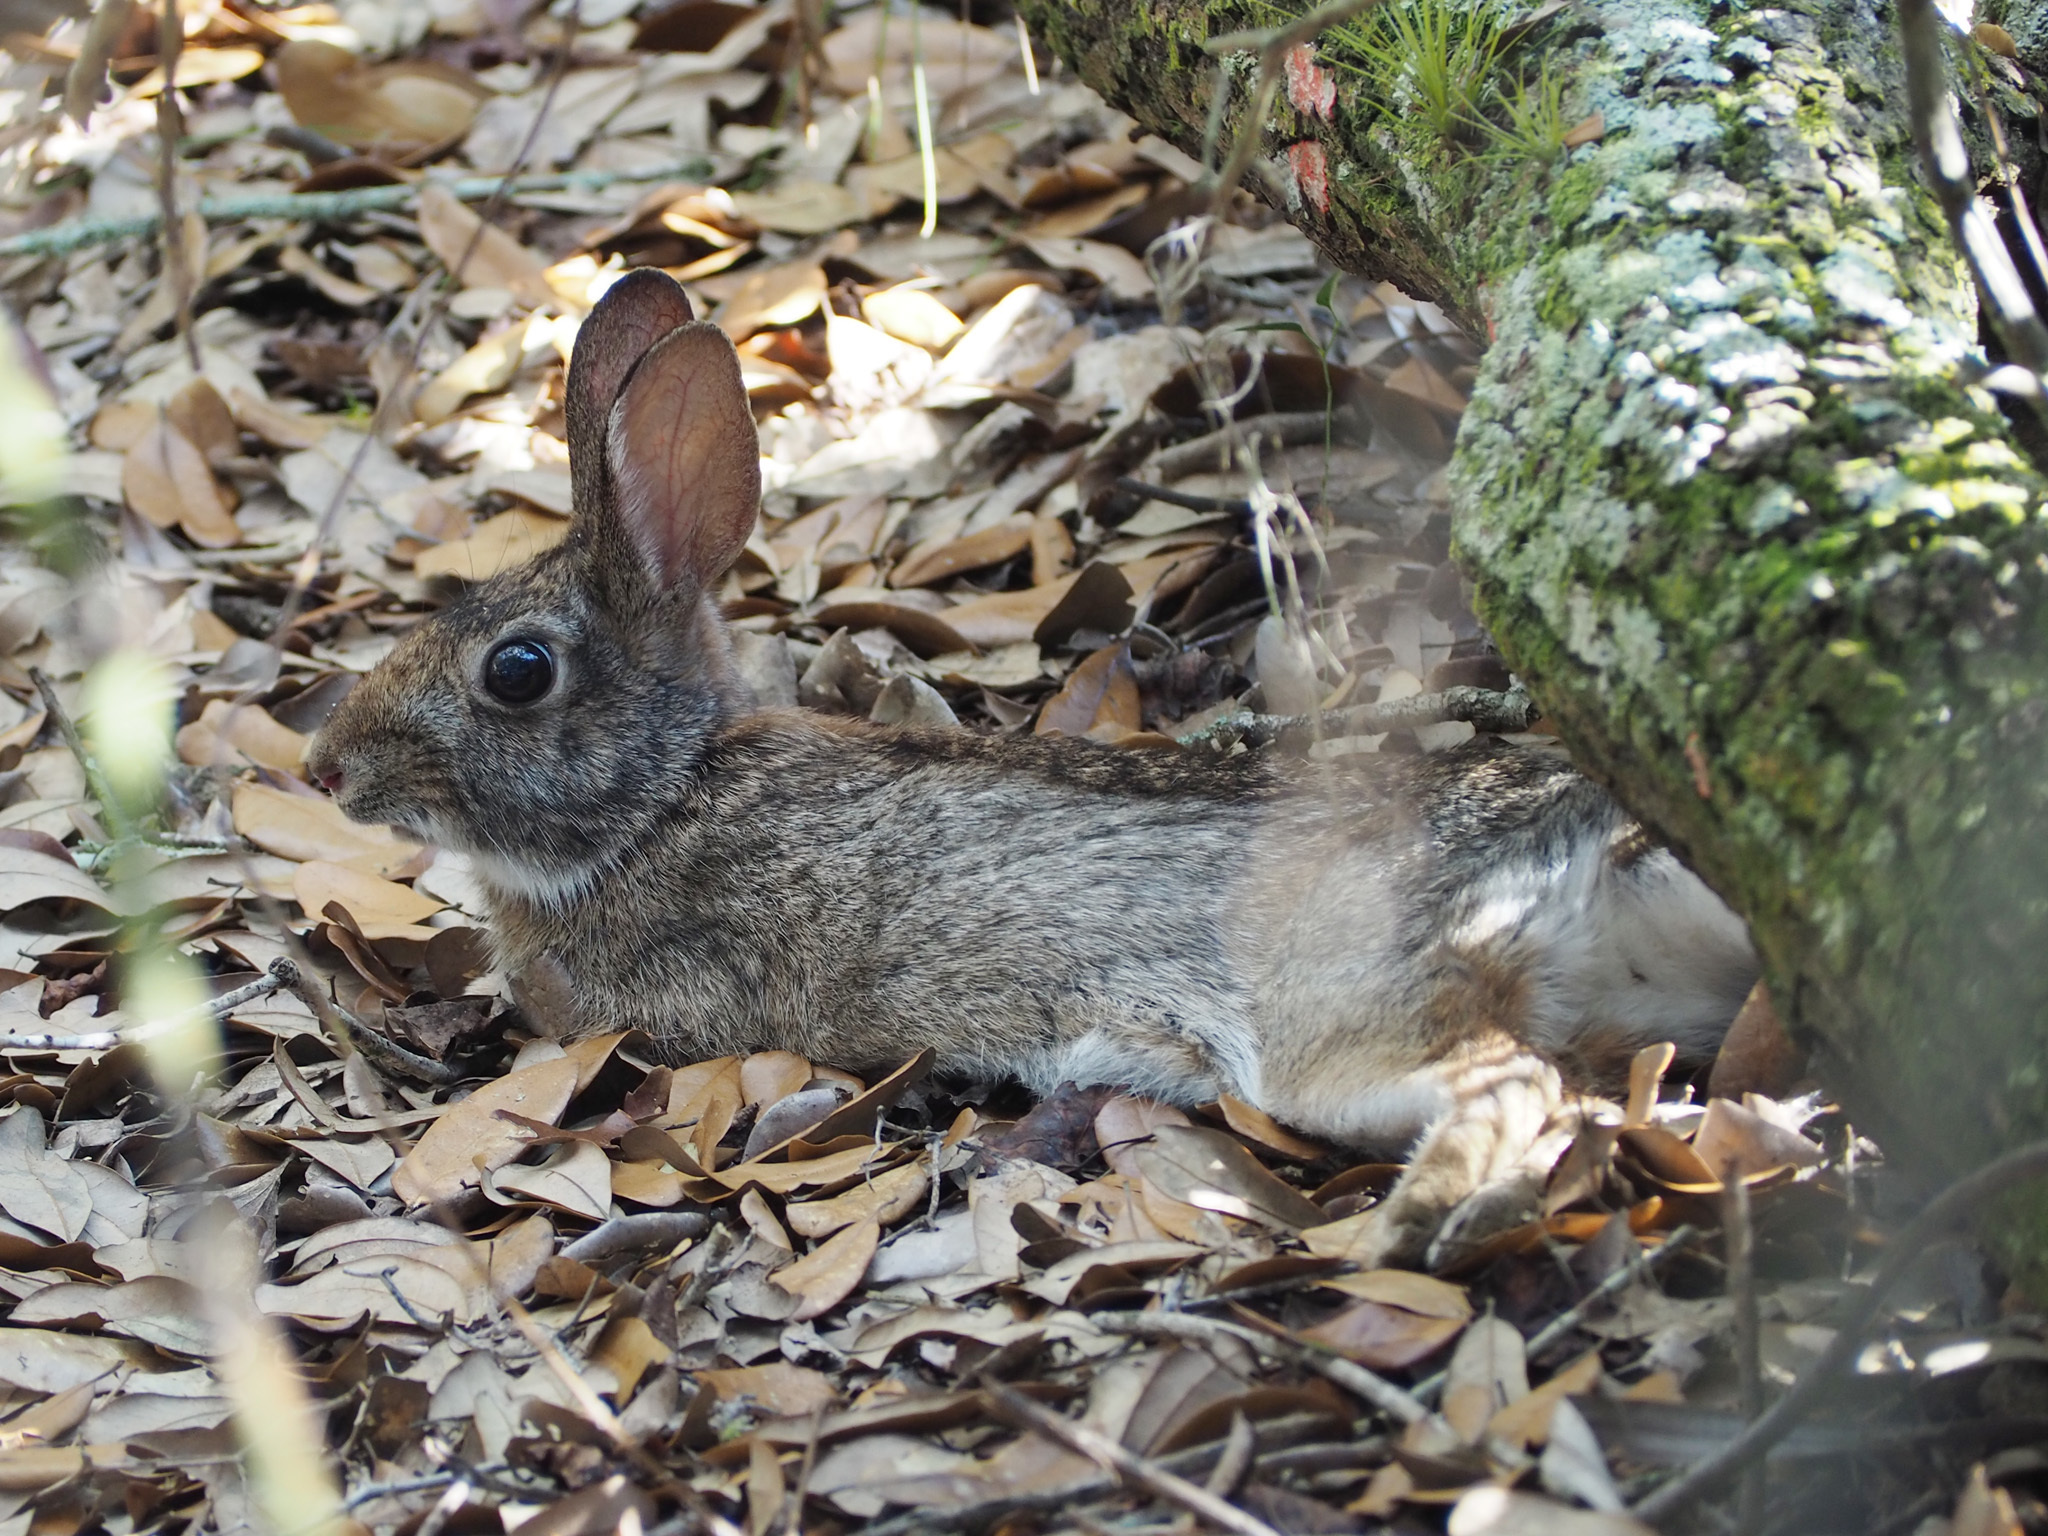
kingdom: Animalia
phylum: Chordata
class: Mammalia
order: Lagomorpha
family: Leporidae
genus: Sylvilagus
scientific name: Sylvilagus floridanus
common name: Eastern cottontail
